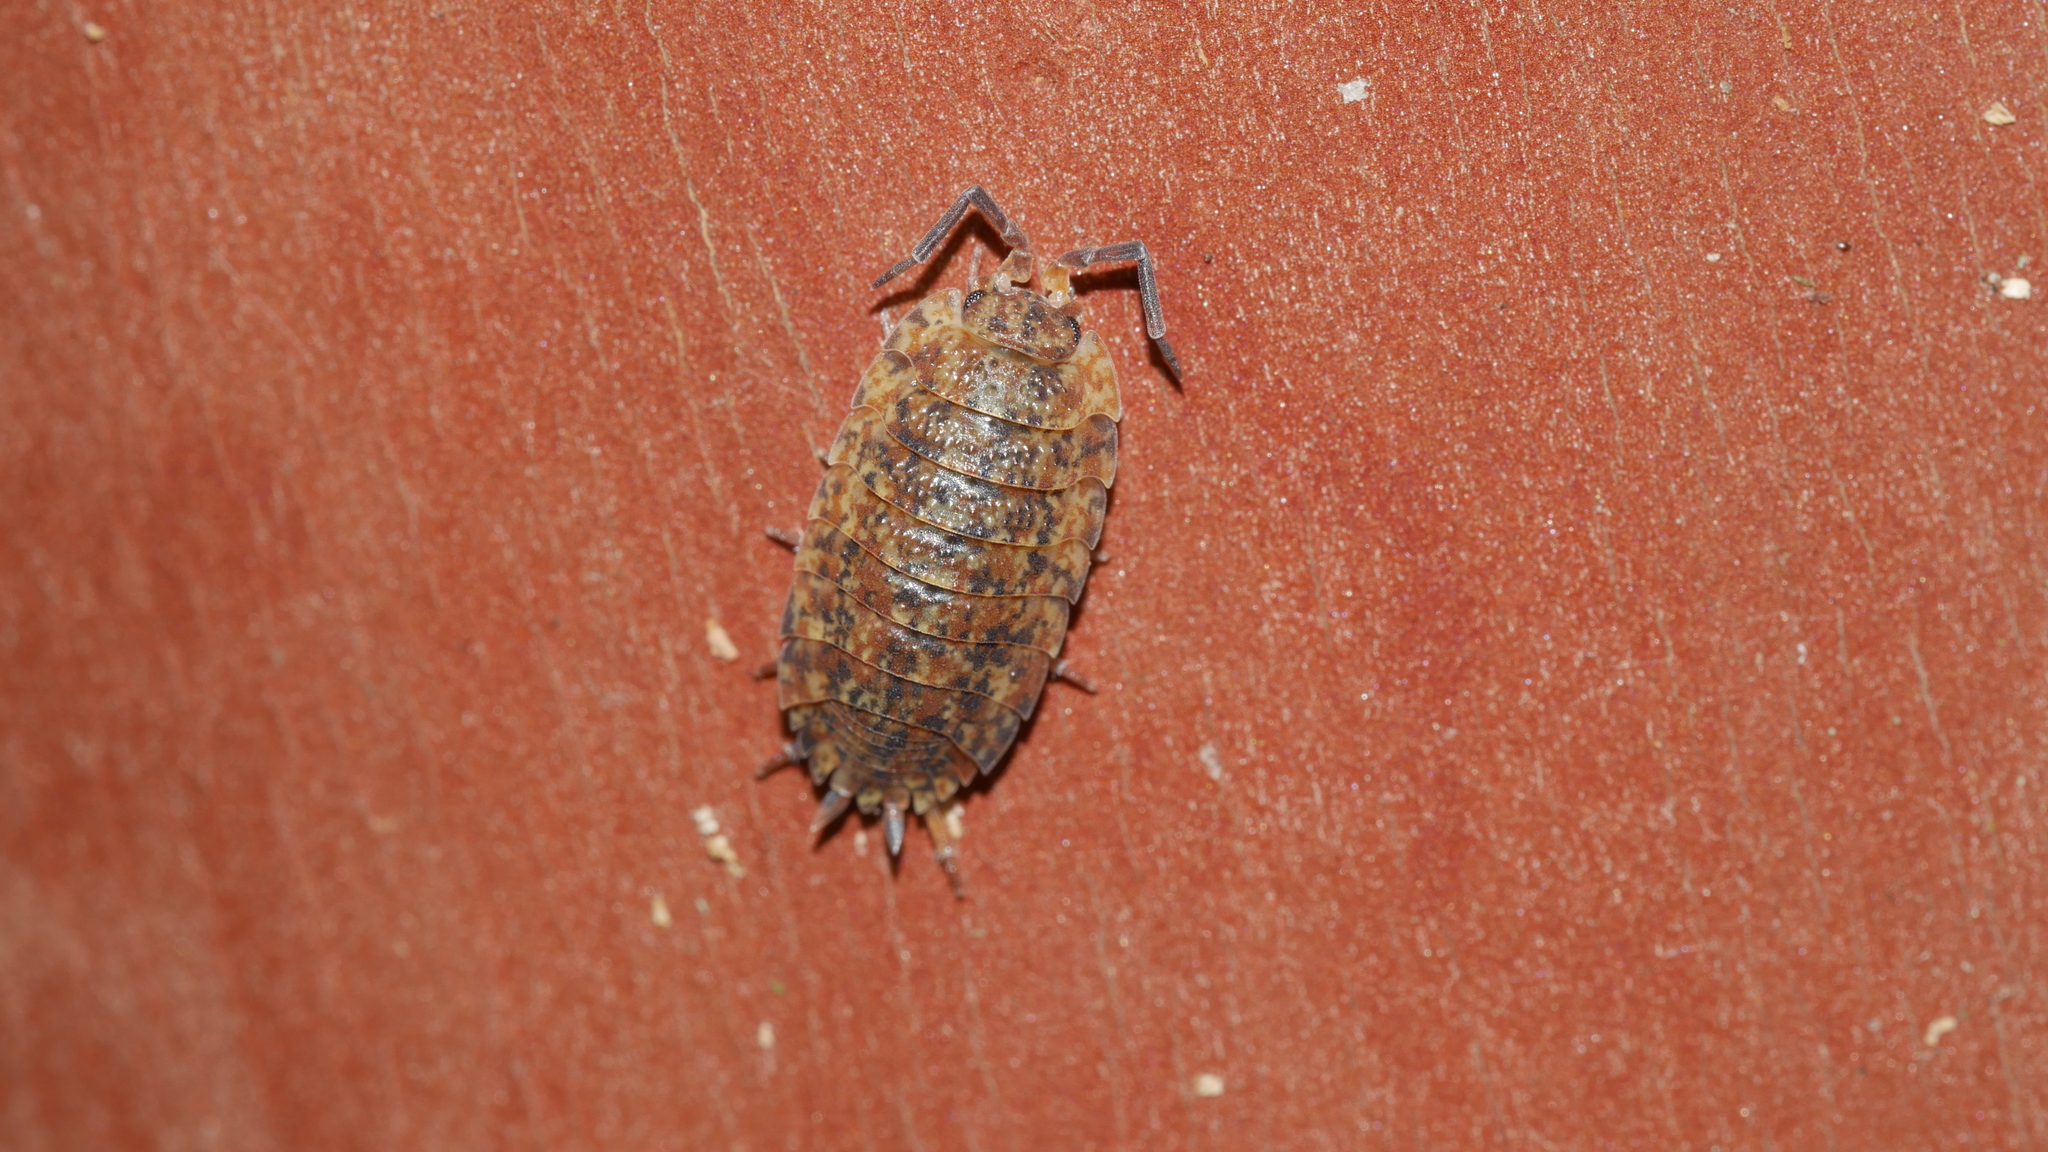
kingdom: Animalia
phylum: Arthropoda
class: Malacostraca
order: Isopoda
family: Porcellionidae
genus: Porcellio
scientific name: Porcellio scaber
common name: Common rough woodlouse
